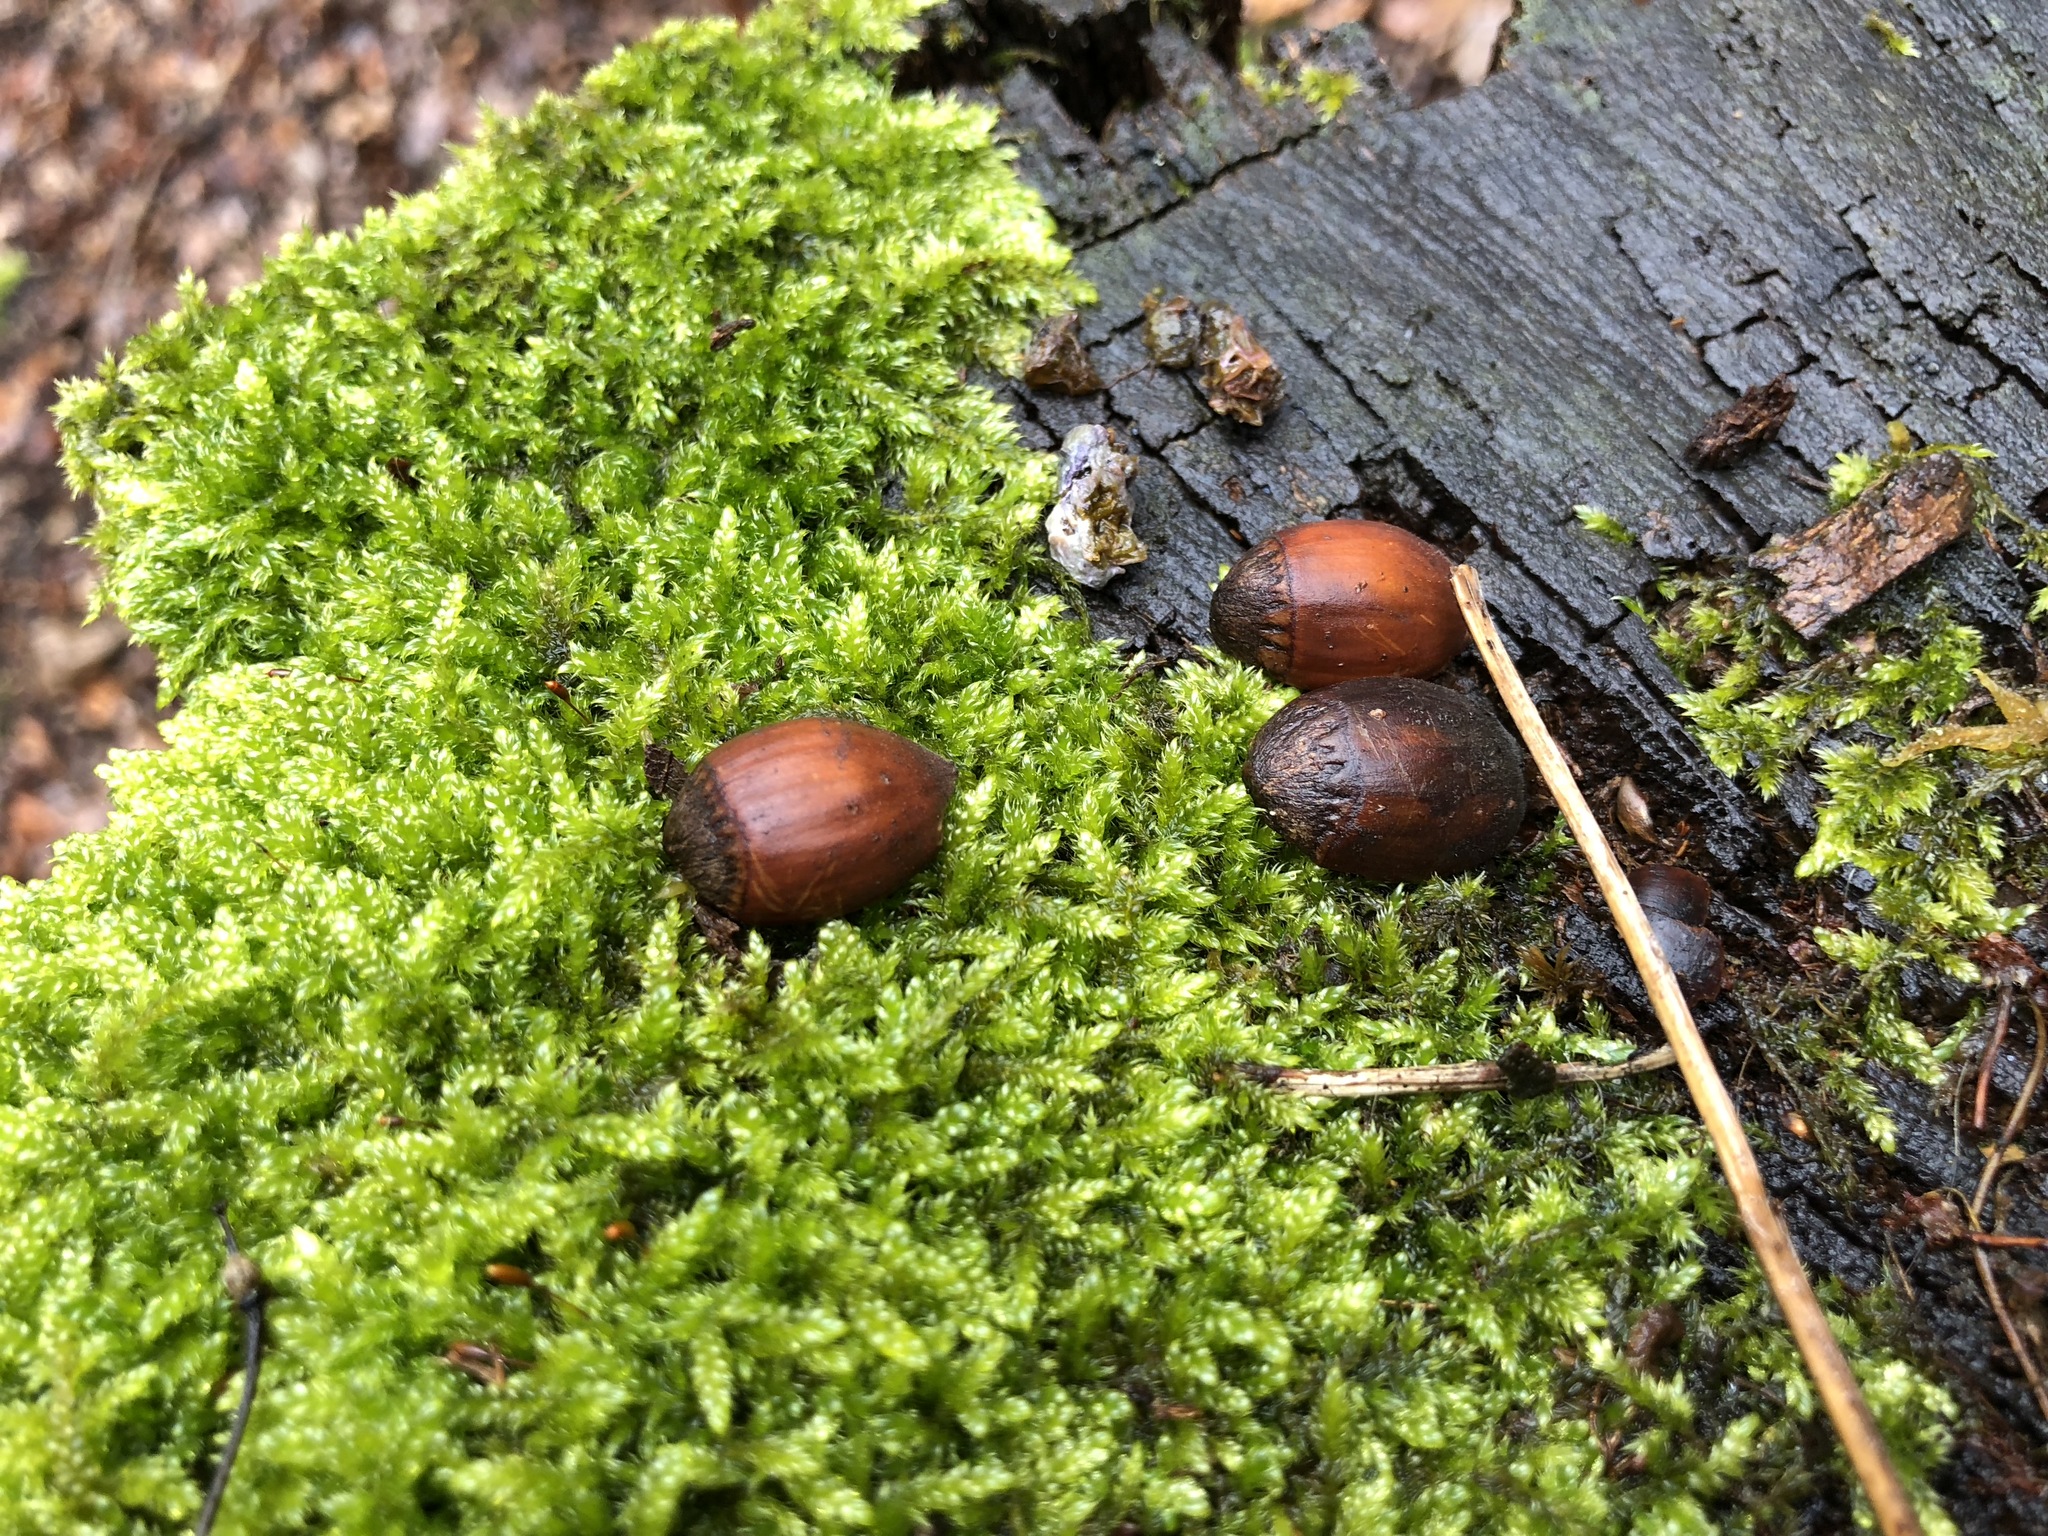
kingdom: Plantae
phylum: Tracheophyta
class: Magnoliopsida
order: Fagales
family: Betulaceae
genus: Corylus
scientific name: Corylus avellana
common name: European hazel
